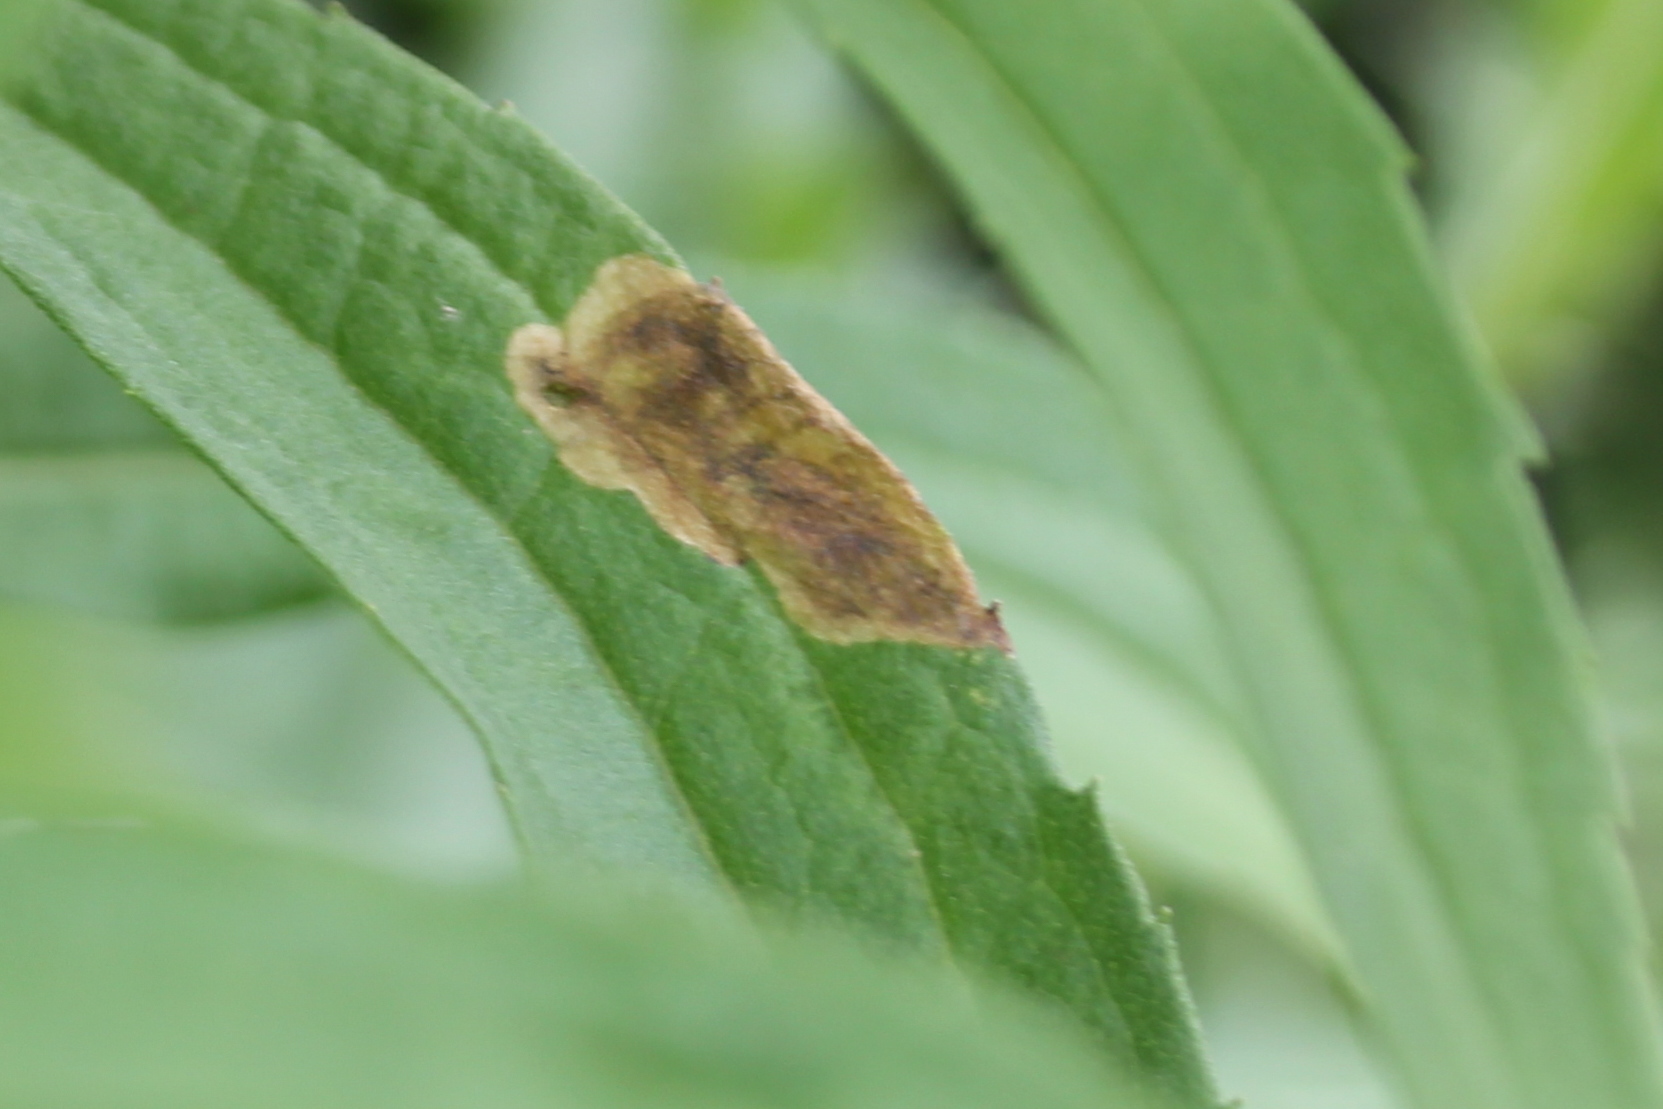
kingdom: Animalia
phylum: Arthropoda
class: Insecta
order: Diptera
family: Agromyzidae
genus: Nemorimyza
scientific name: Nemorimyza posticata
